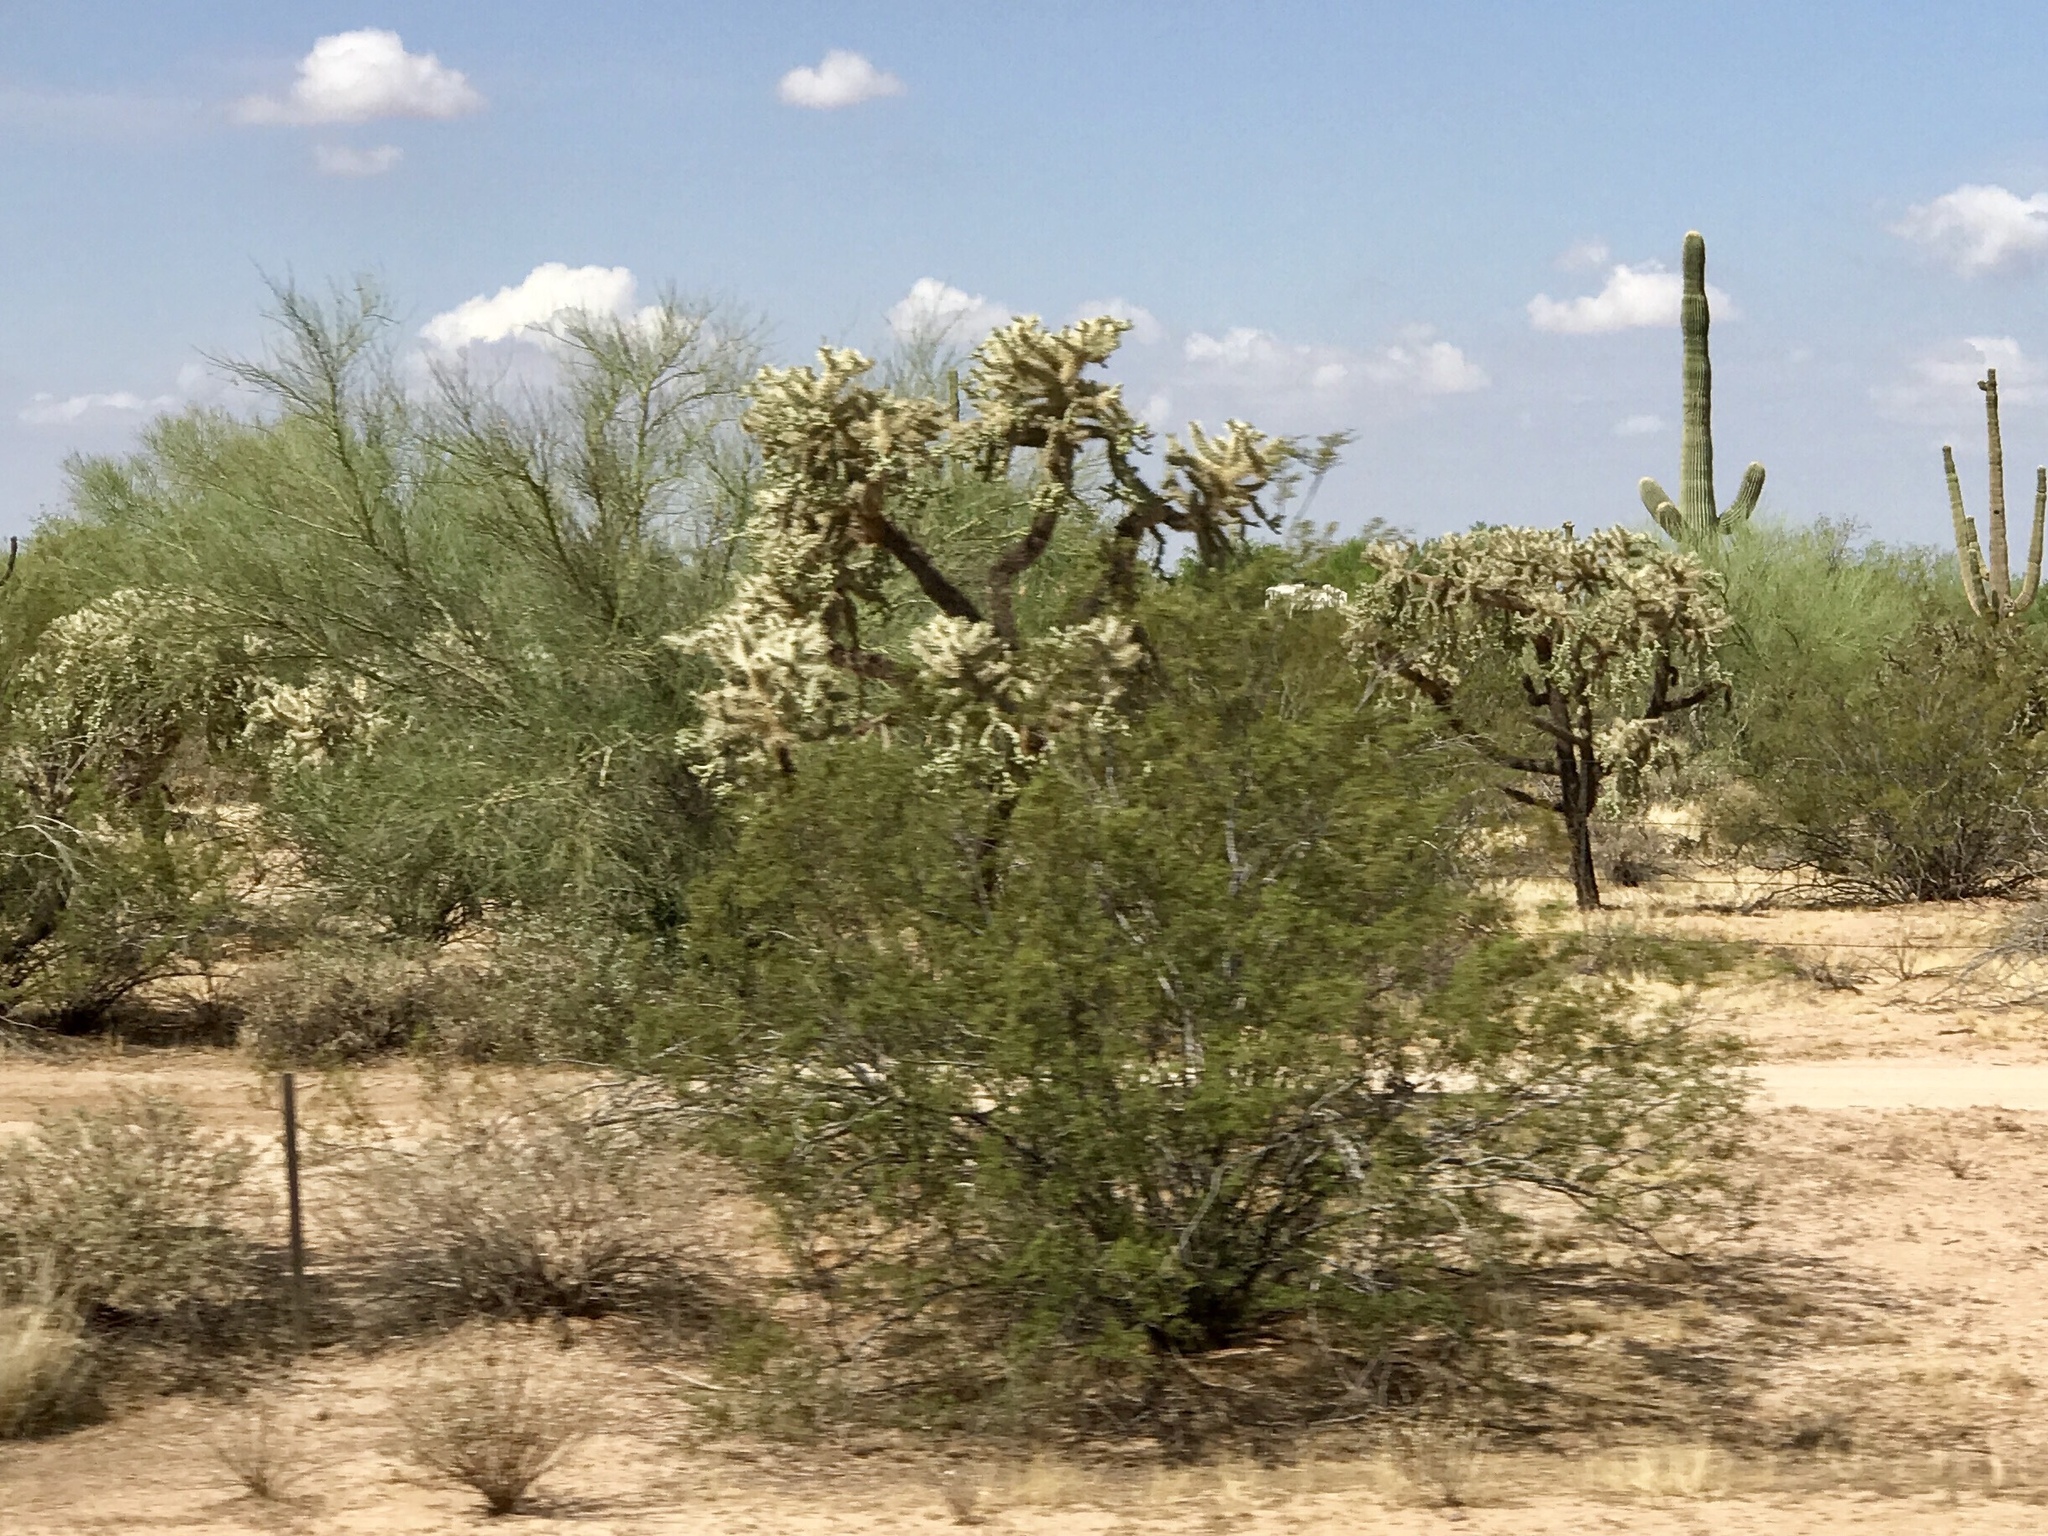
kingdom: Plantae
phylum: Tracheophyta
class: Magnoliopsida
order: Zygophyllales
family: Zygophyllaceae
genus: Larrea
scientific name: Larrea tridentata
